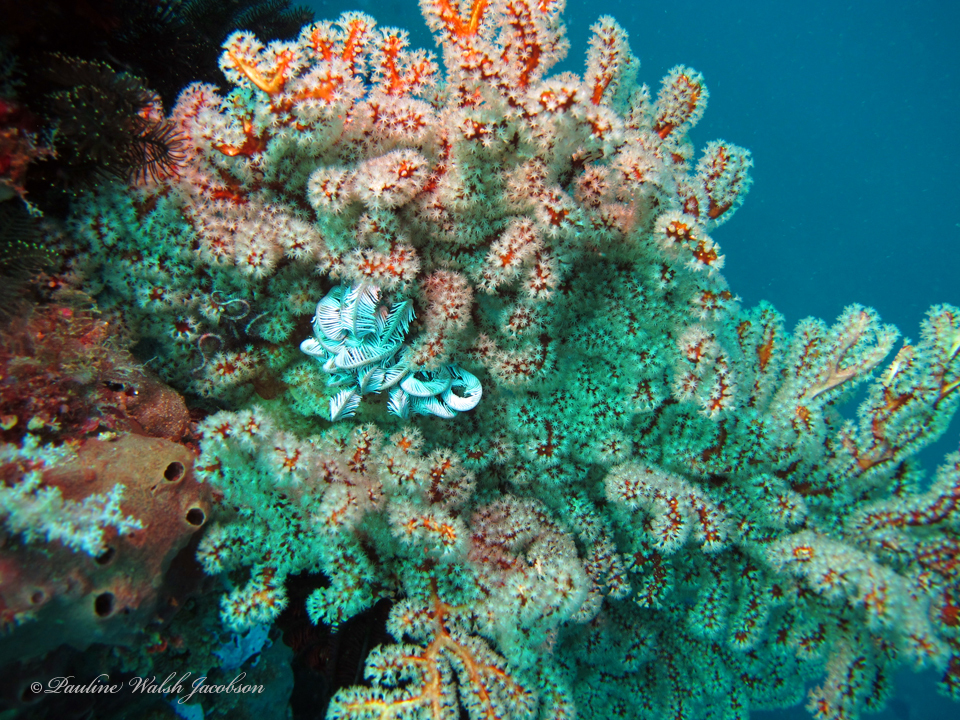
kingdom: Animalia
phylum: Cnidaria
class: Anthozoa
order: Malacalcyonacea
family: Melithaeidae
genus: Iciligorgia
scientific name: Iciligorgia rubra
